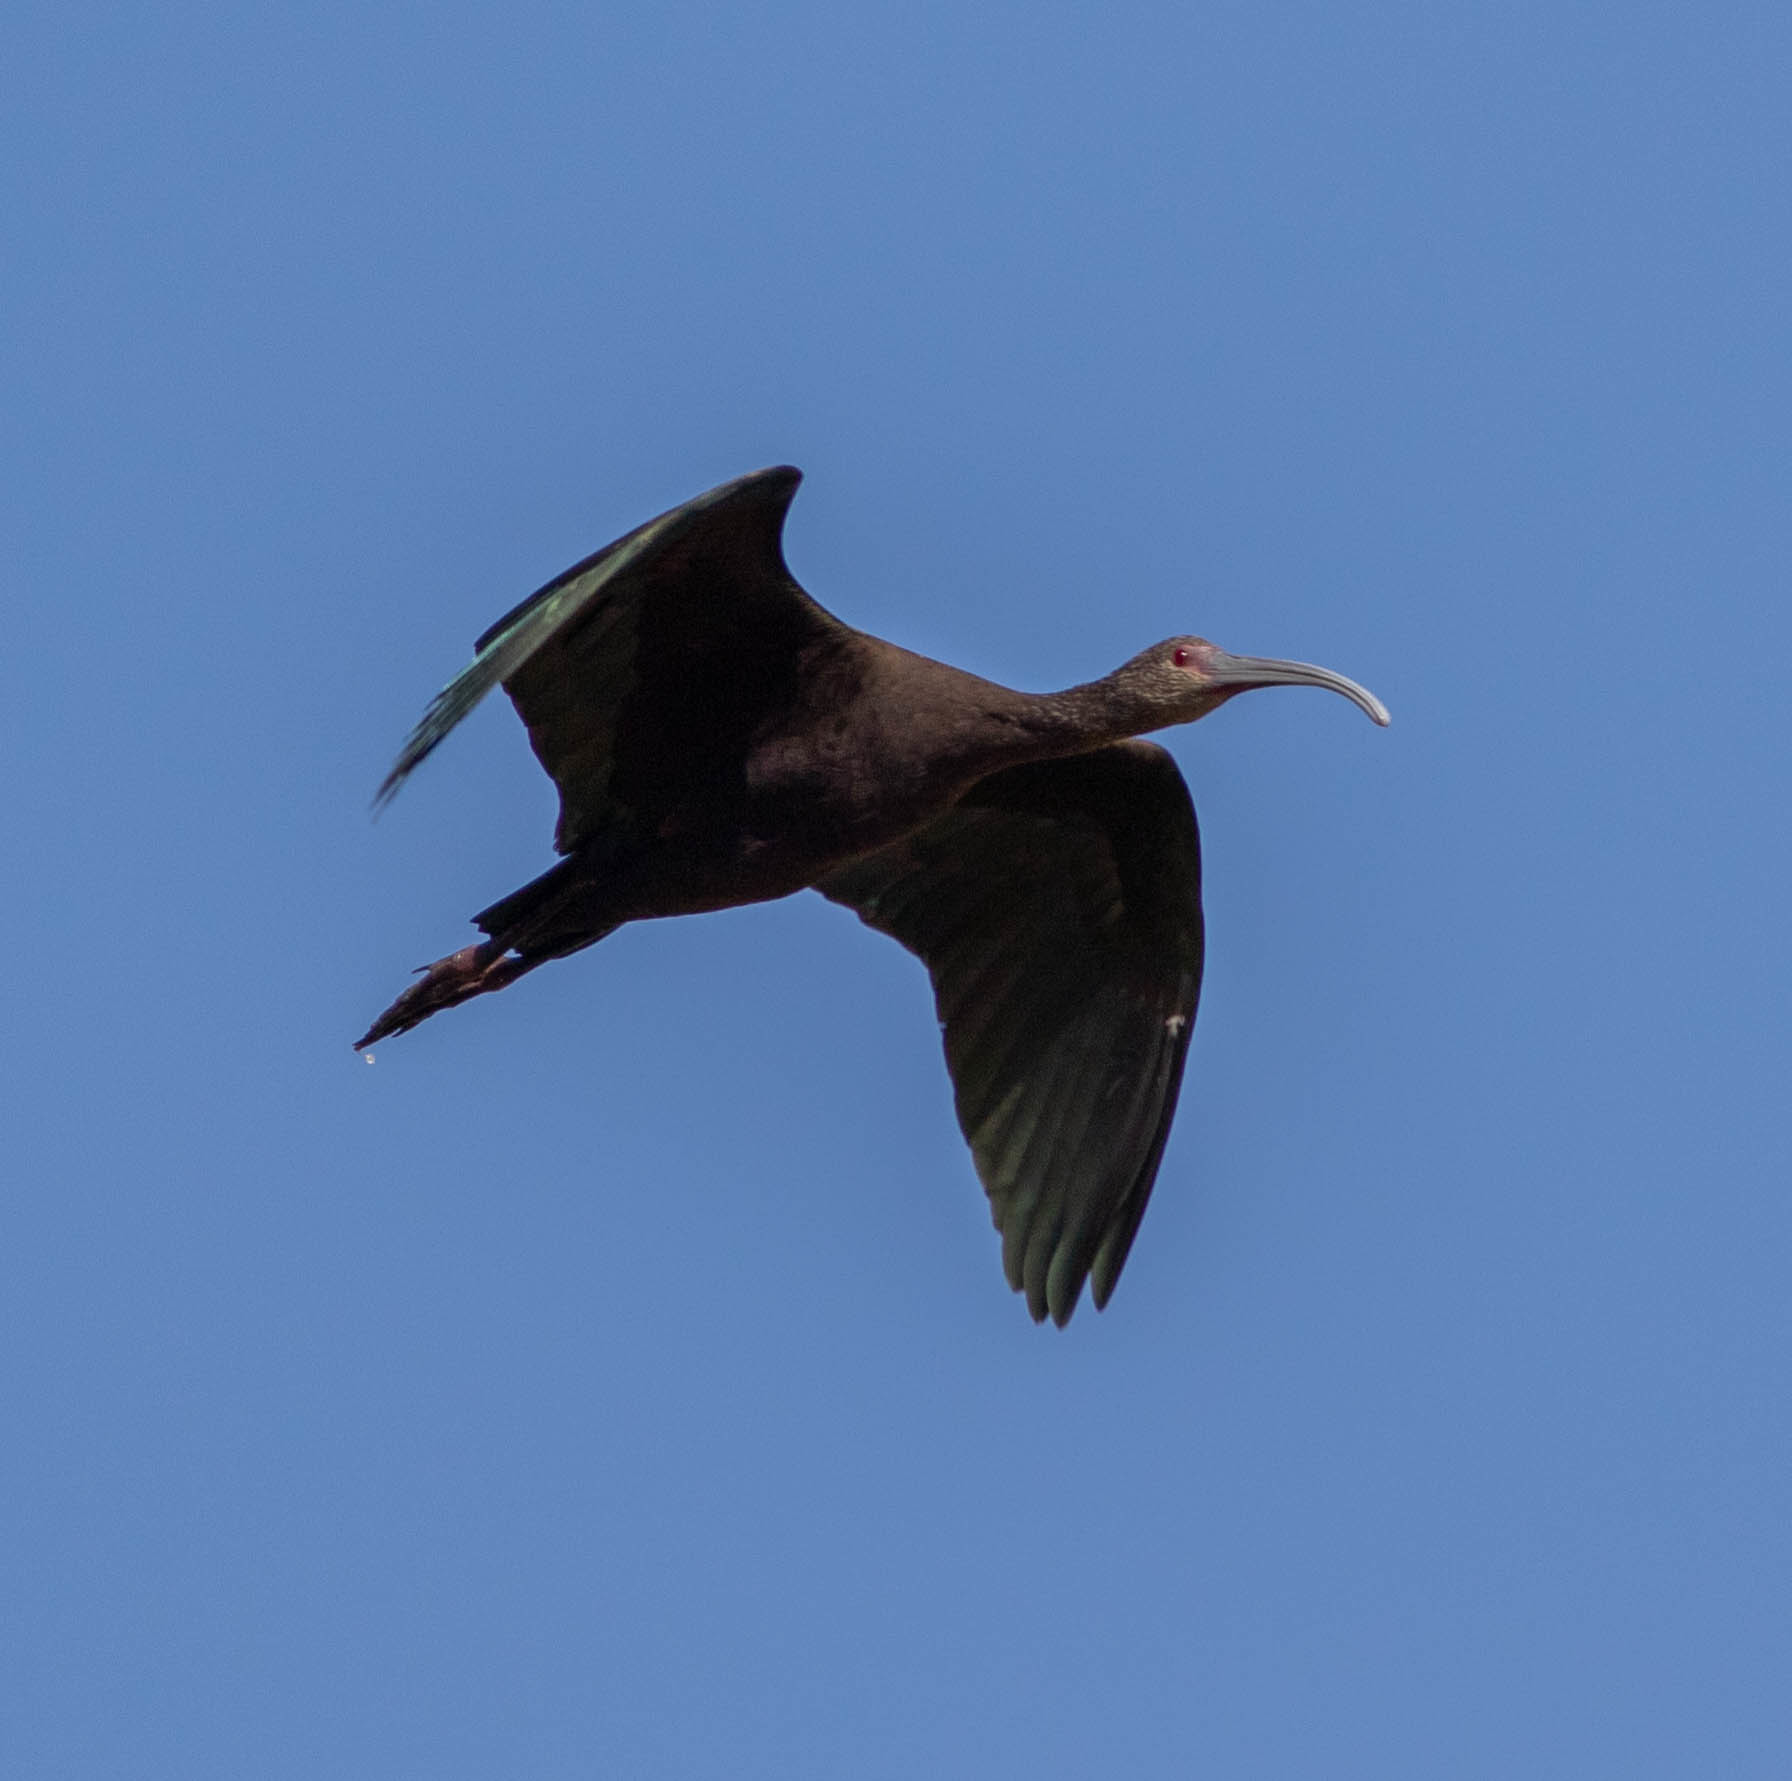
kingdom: Animalia
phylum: Chordata
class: Aves
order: Pelecaniformes
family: Threskiornithidae
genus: Plegadis
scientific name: Plegadis chihi
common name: White-faced ibis
